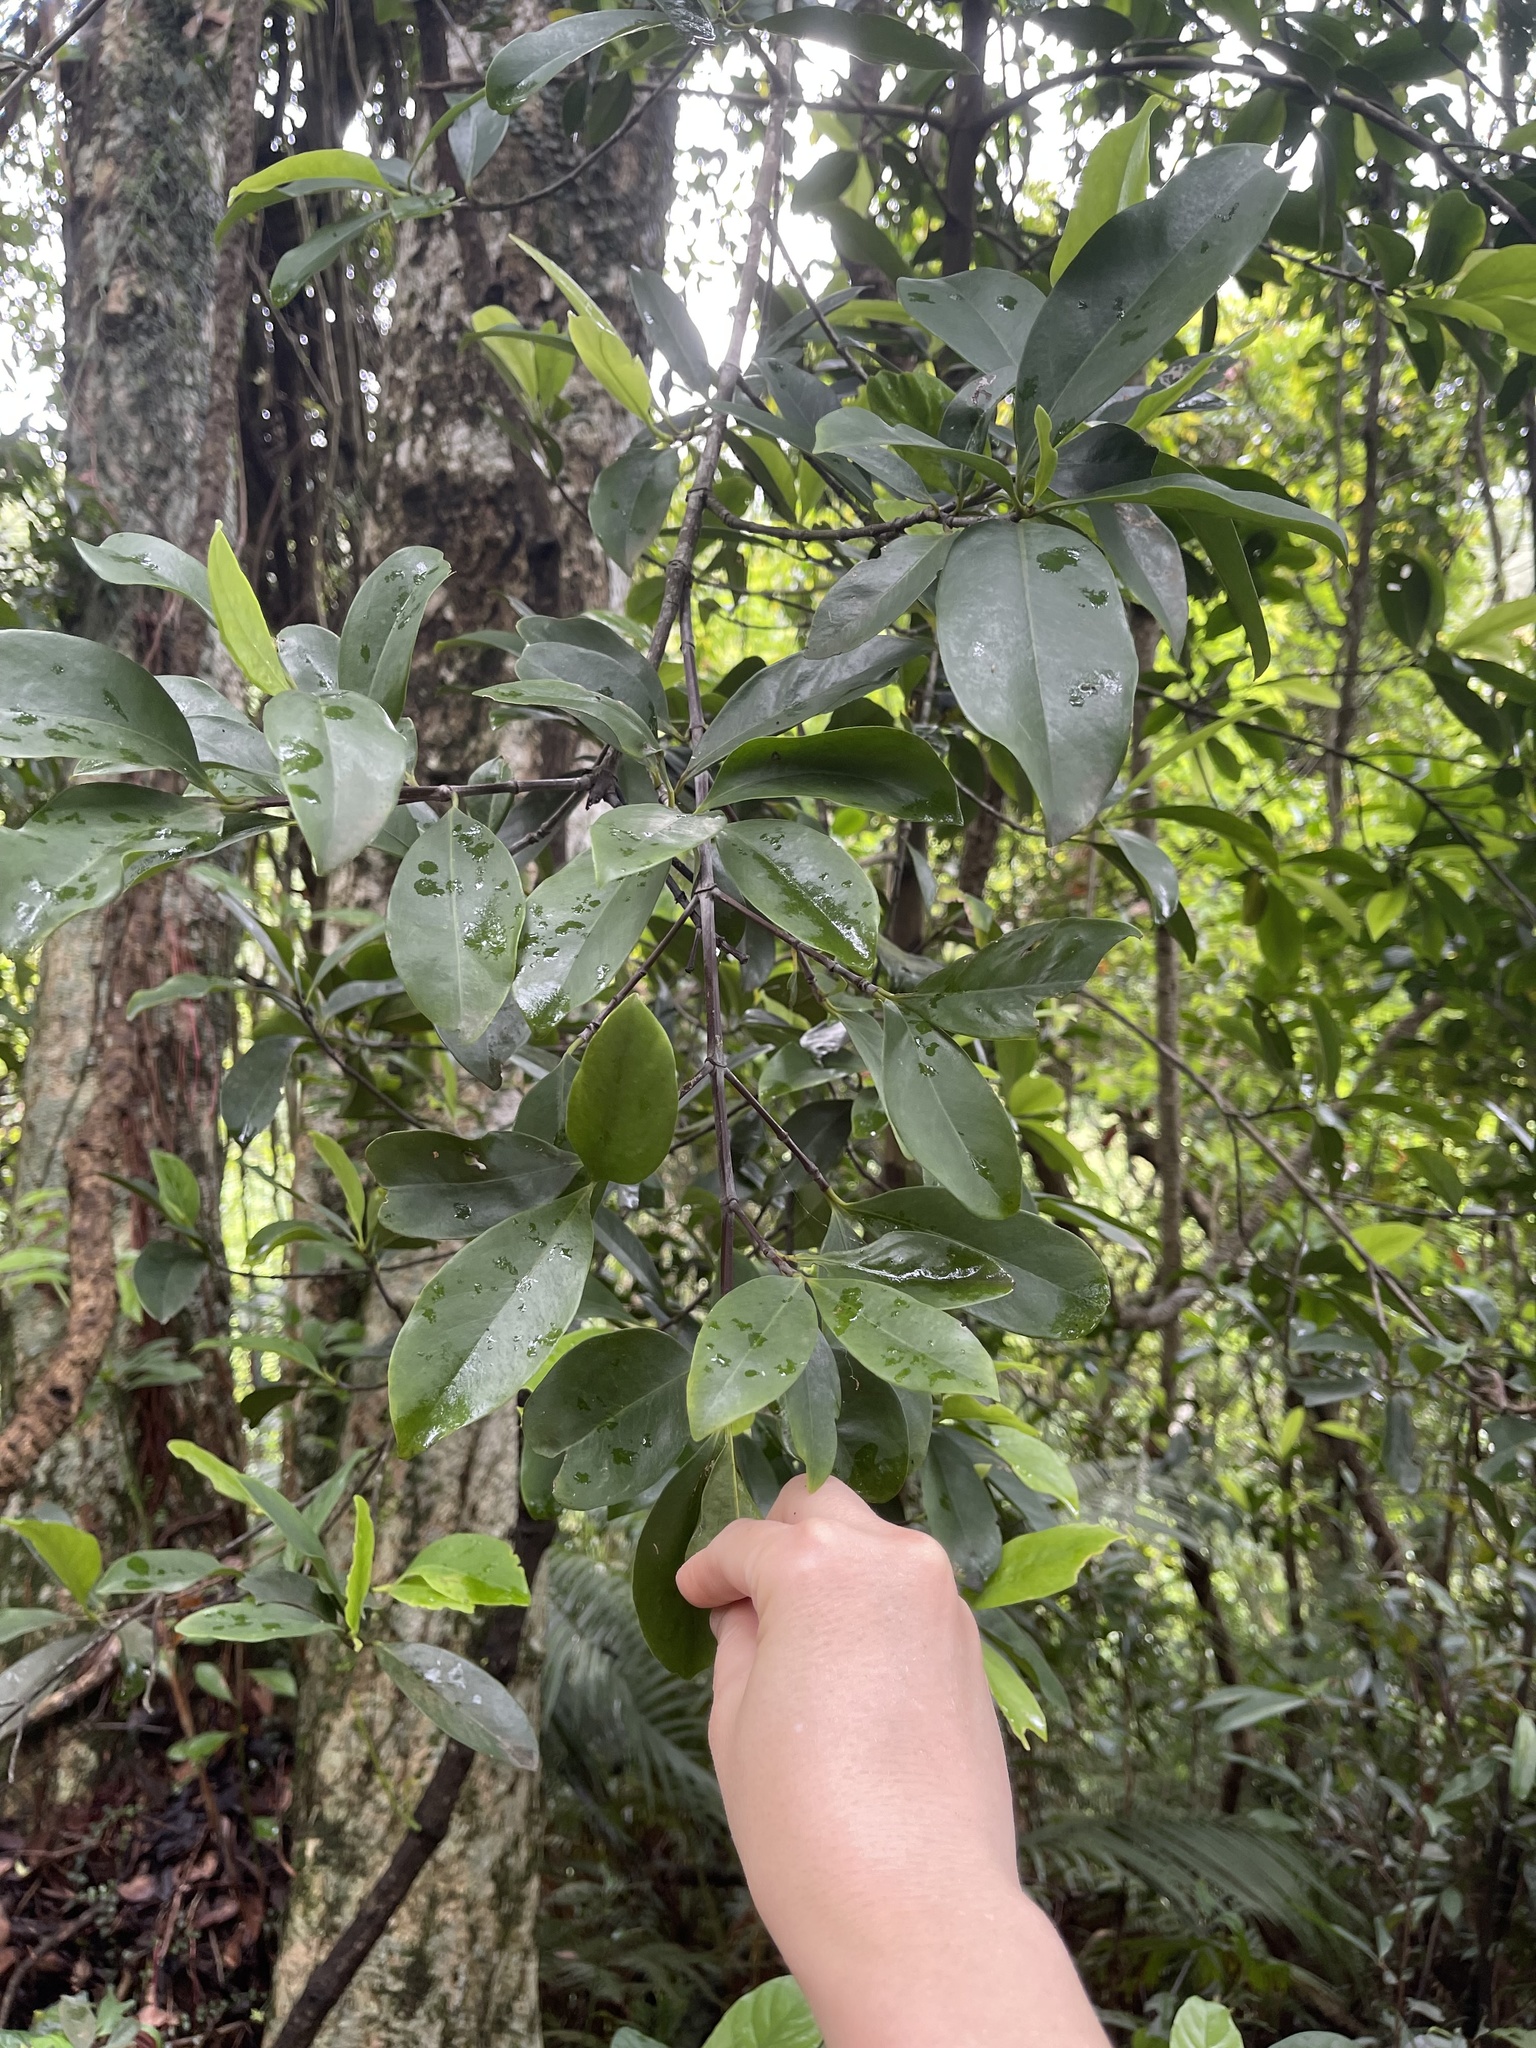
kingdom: Plantae
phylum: Tracheophyta
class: Magnoliopsida
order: Malpighiales
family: Clusiaceae
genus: Garcinia
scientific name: Garcinia oblongifolia
